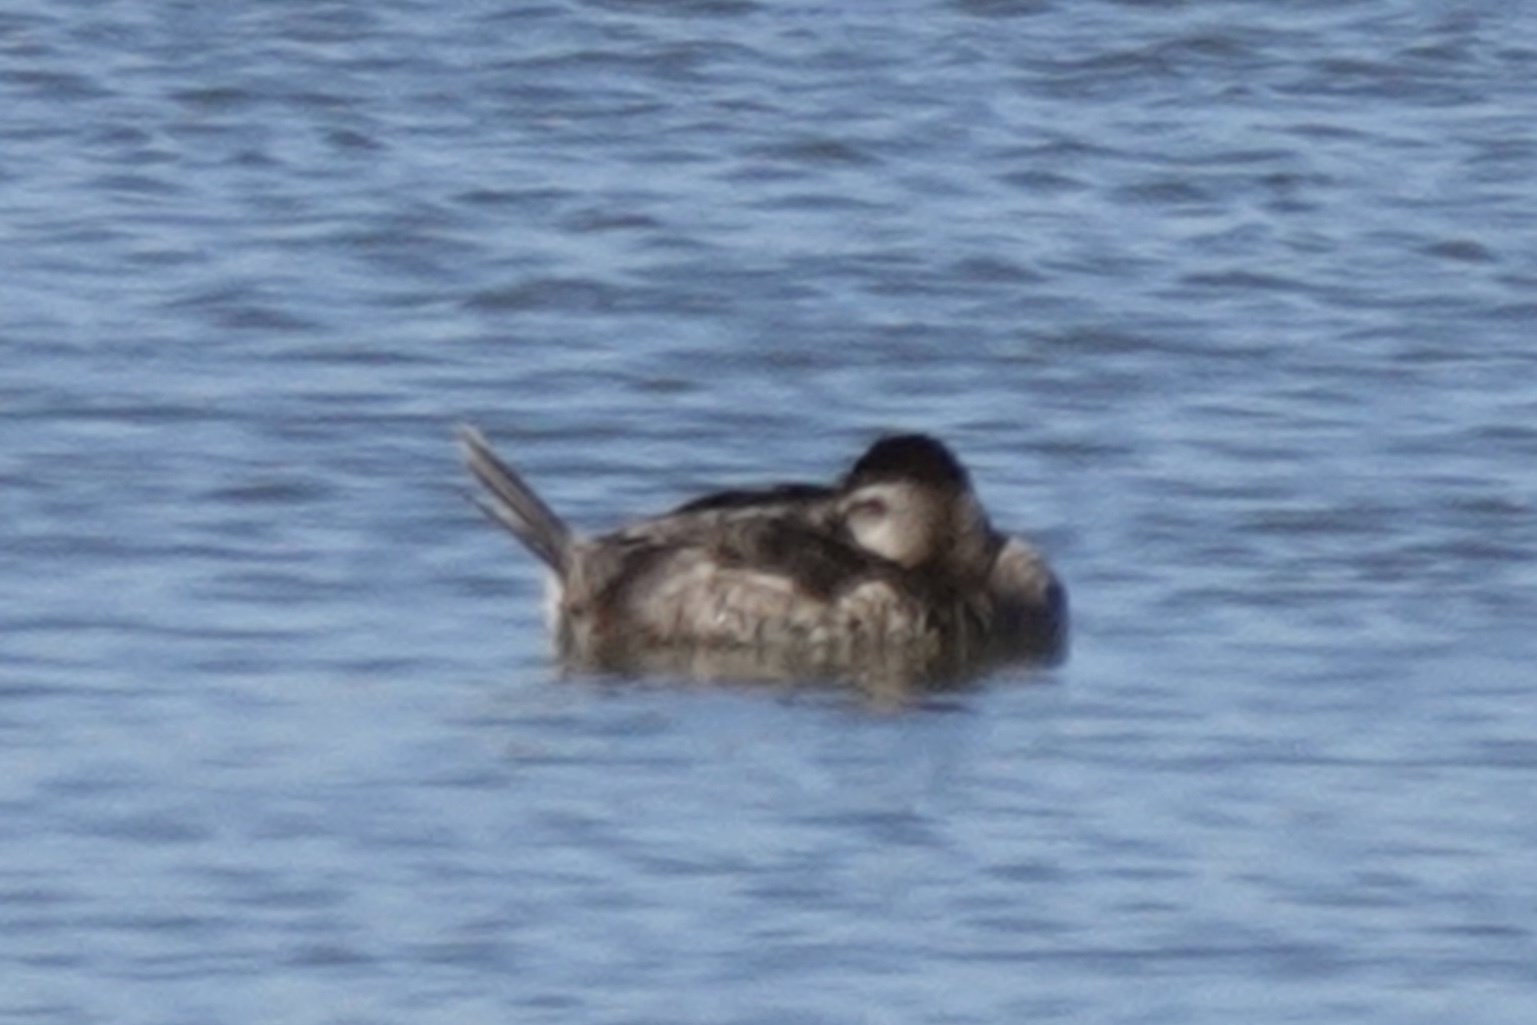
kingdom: Animalia
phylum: Chordata
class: Aves
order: Anseriformes
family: Anatidae
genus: Oxyura
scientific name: Oxyura jamaicensis
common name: Ruddy duck
